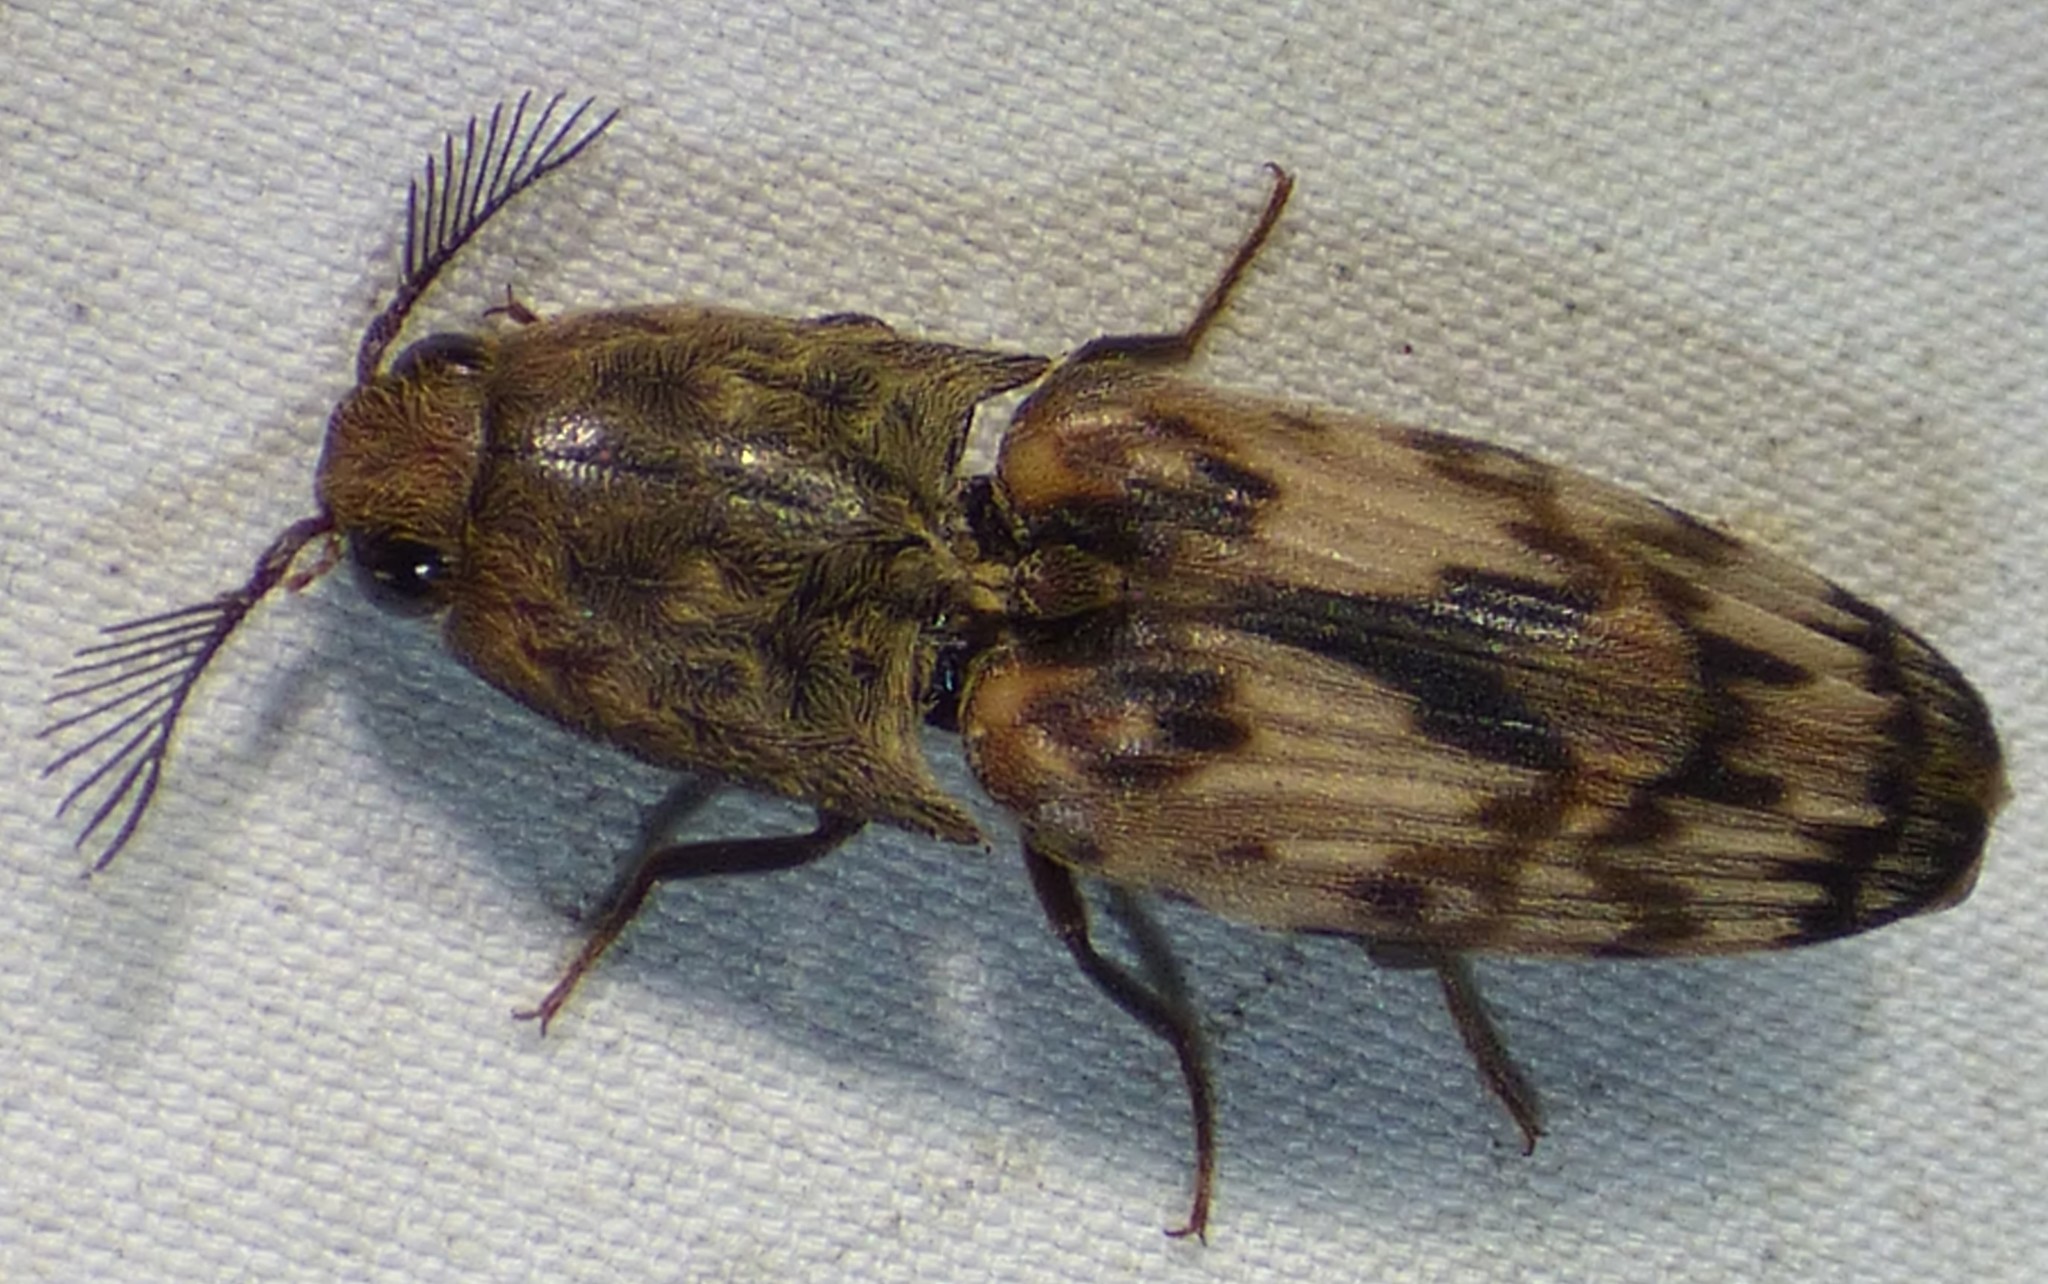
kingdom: Animalia
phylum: Arthropoda
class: Insecta
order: Coleoptera
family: Elateridae
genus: Pherhimius
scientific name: Pherhimius fascicularis
